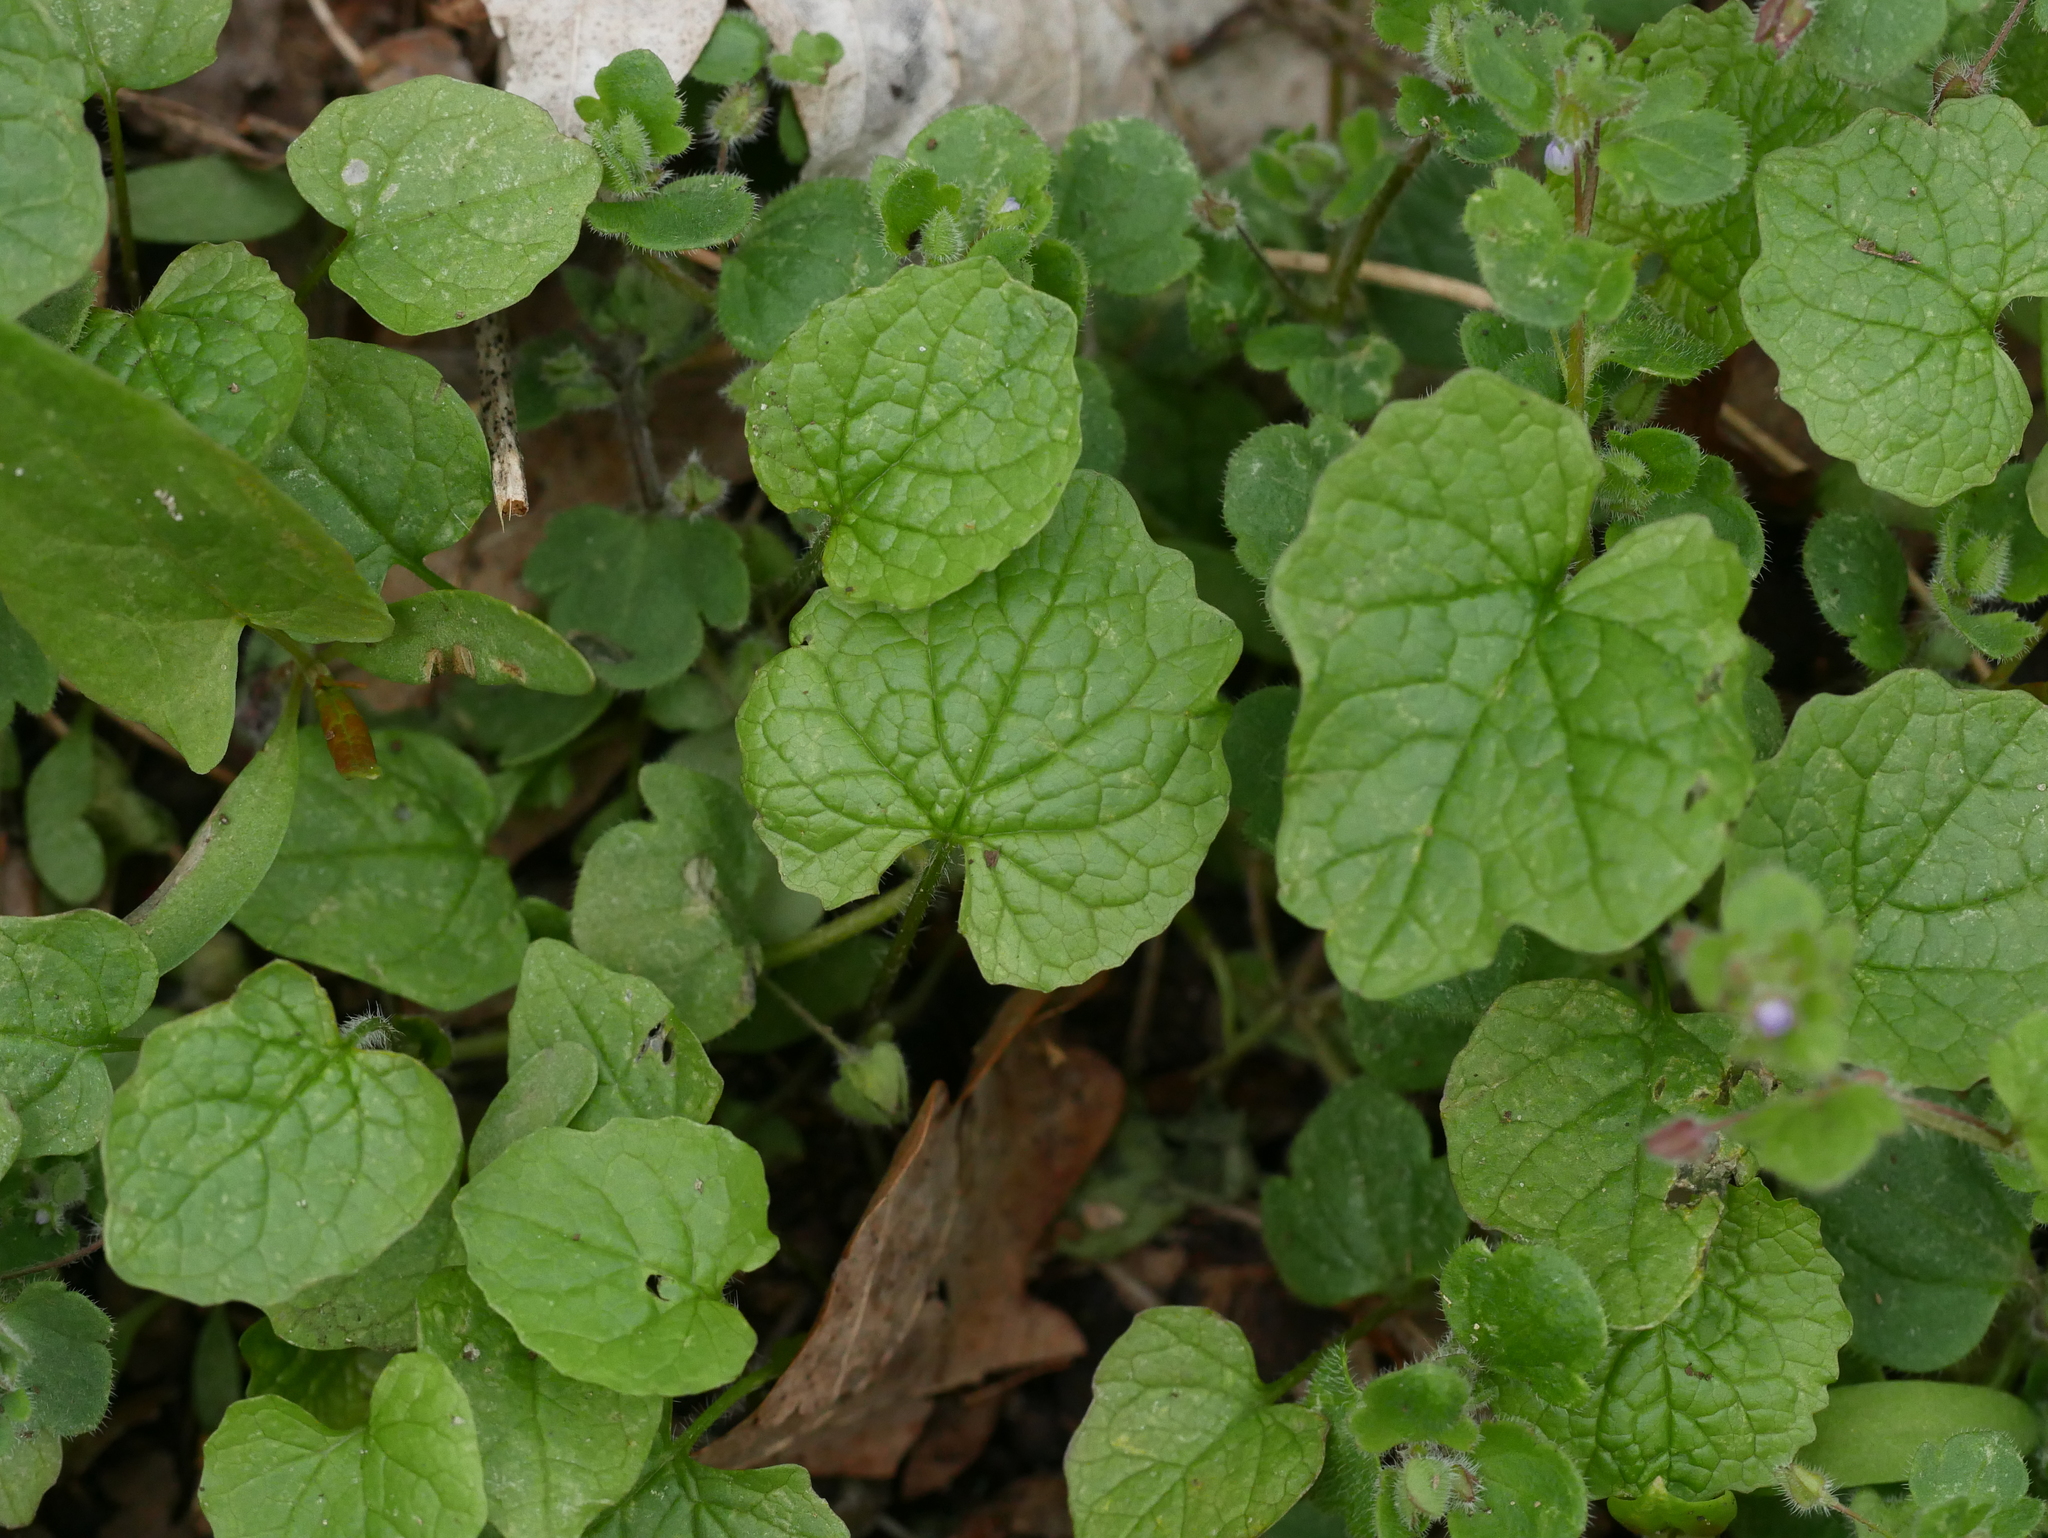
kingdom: Plantae
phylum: Tracheophyta
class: Magnoliopsida
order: Brassicales
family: Brassicaceae
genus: Alliaria
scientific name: Alliaria petiolata
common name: Garlic mustard
